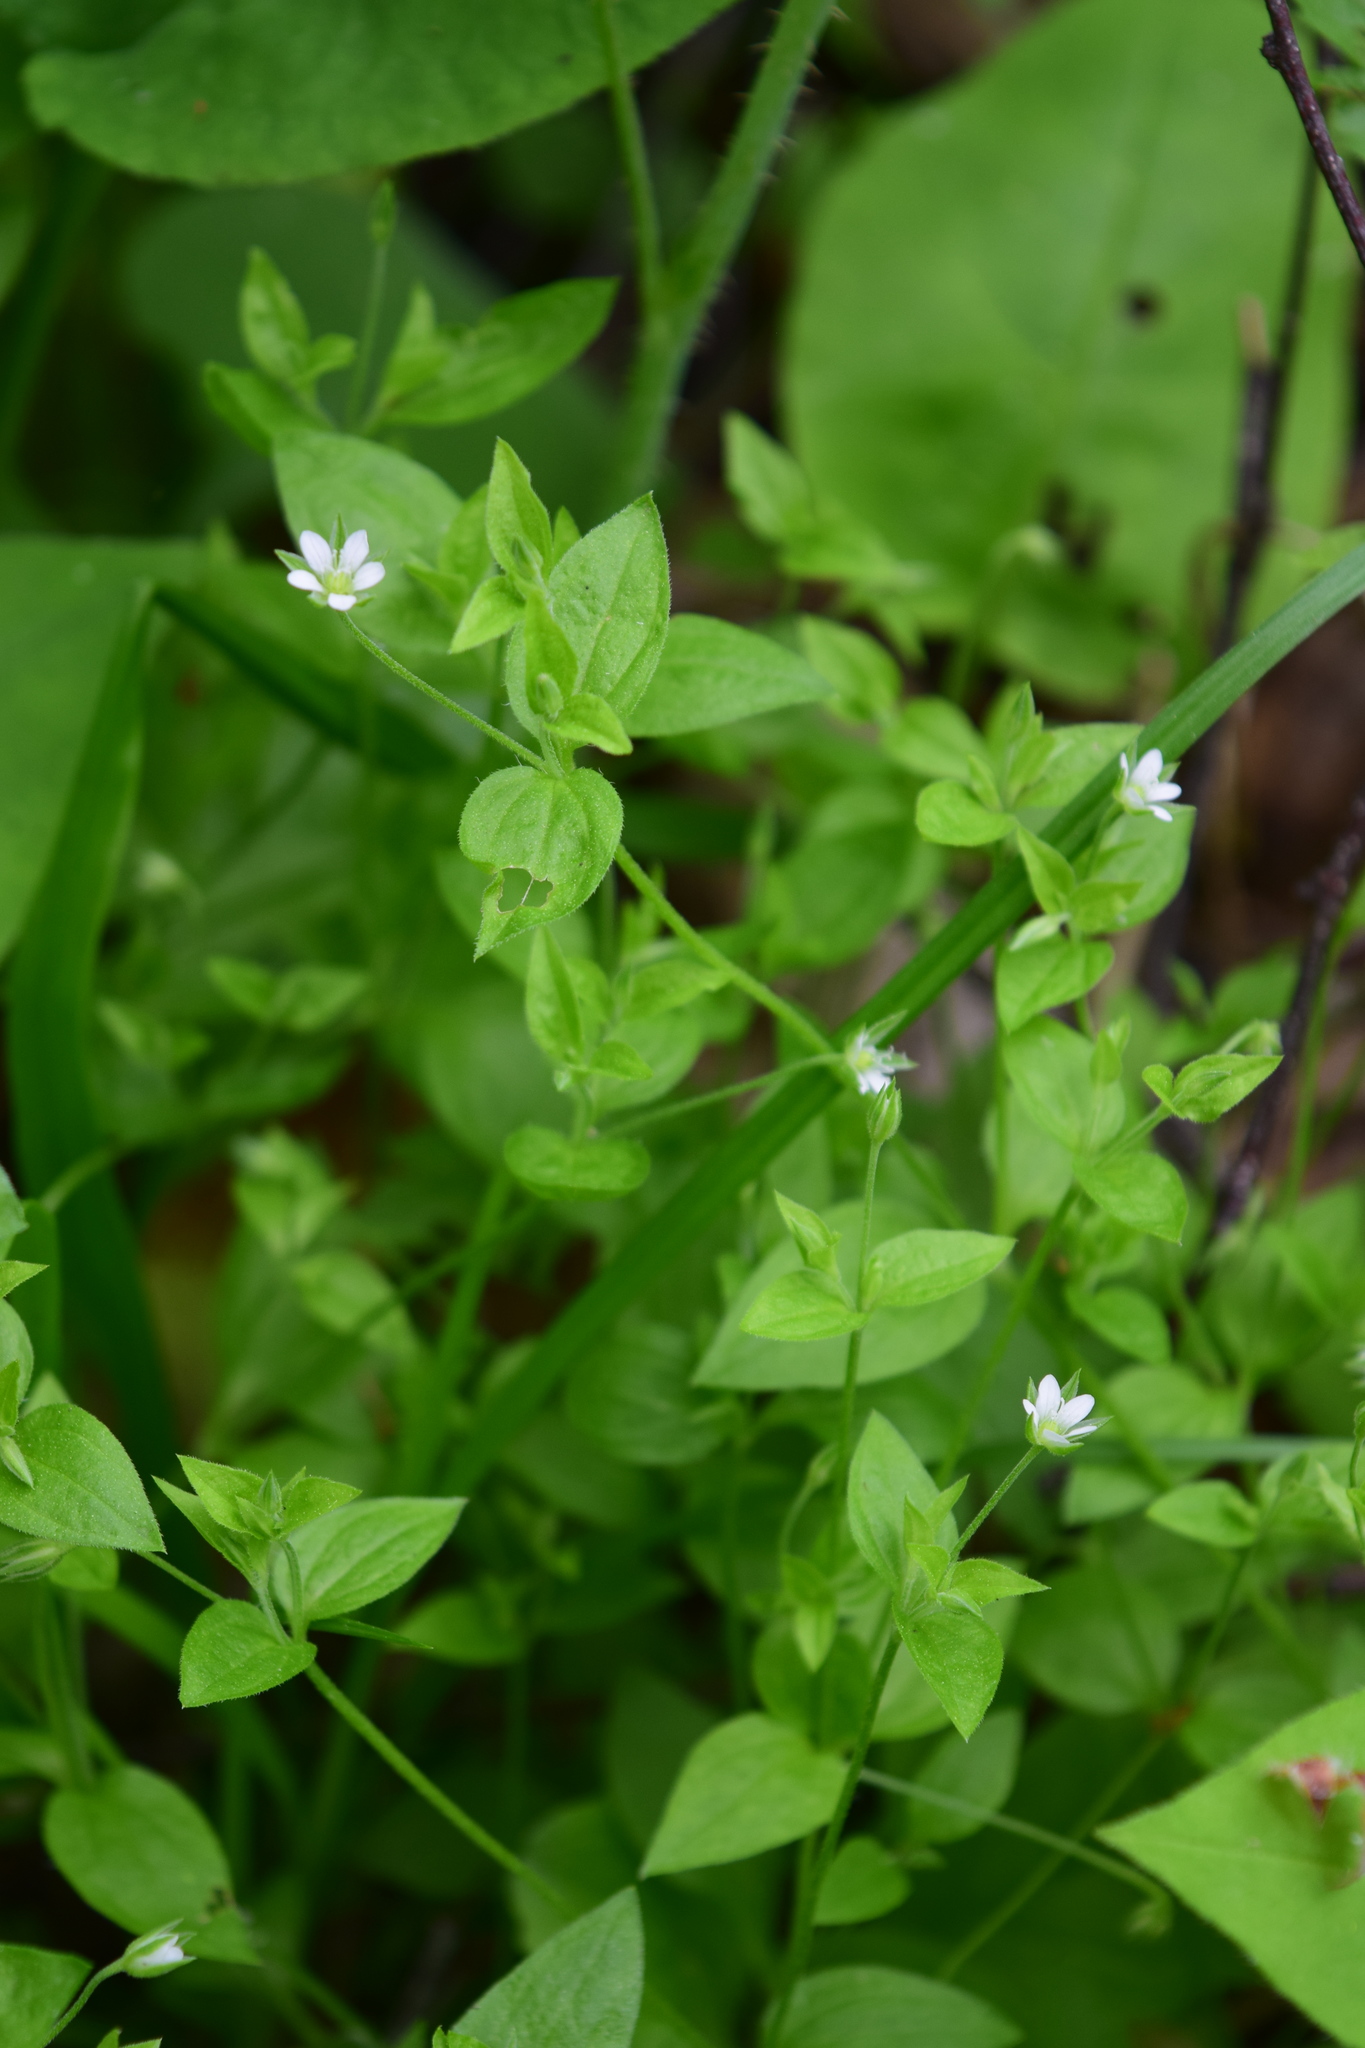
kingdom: Plantae
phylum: Tracheophyta
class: Magnoliopsida
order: Caryophyllales
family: Caryophyllaceae
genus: Moehringia
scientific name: Moehringia trinervia
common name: Three-nerved sandwort
